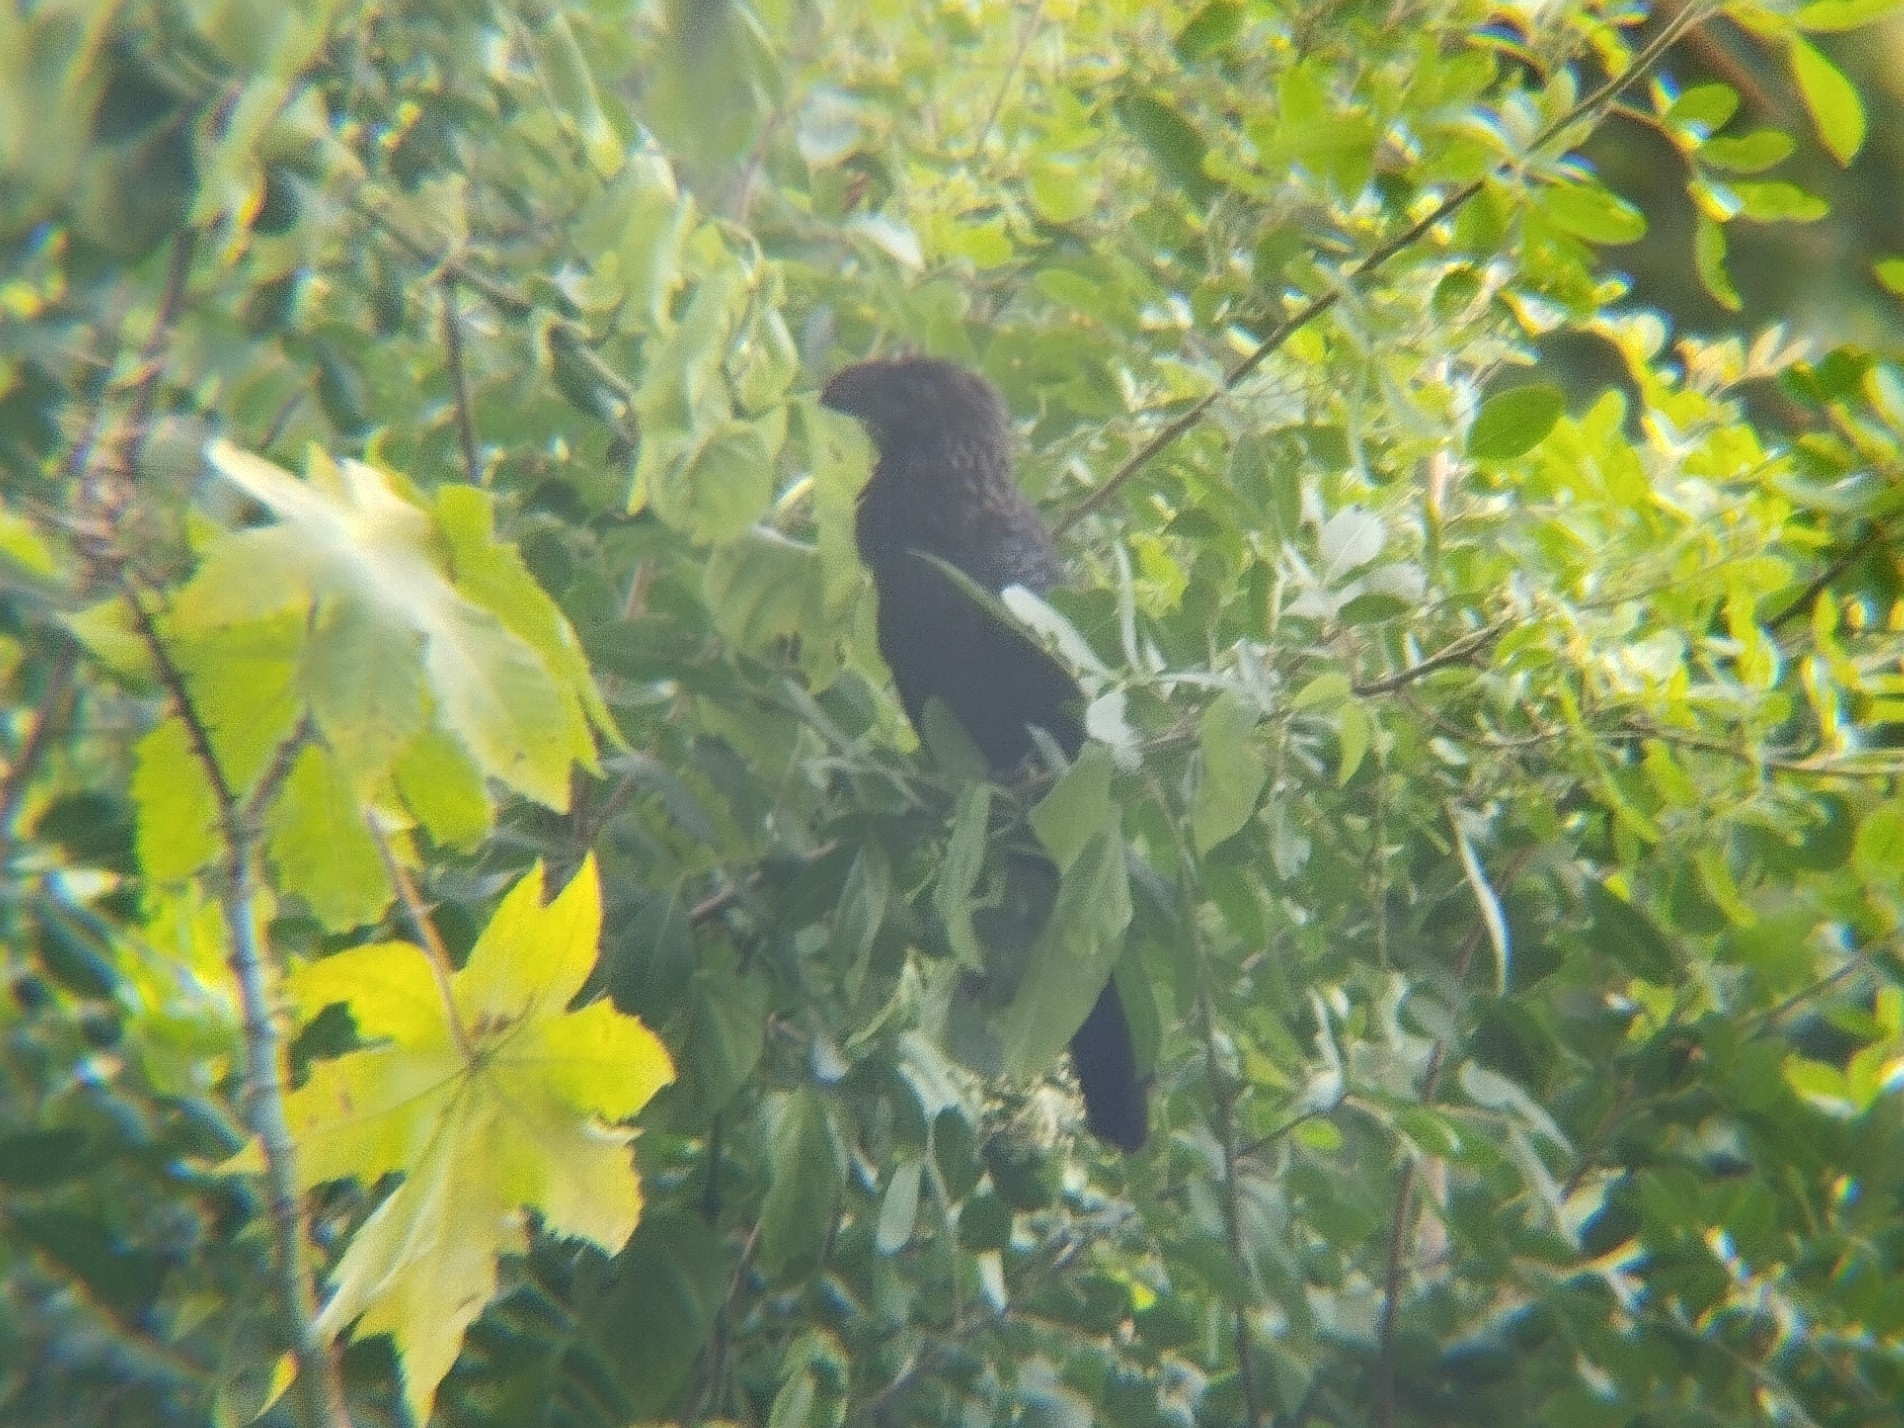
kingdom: Animalia
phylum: Chordata
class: Aves
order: Cuculiformes
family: Cuculidae
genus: Crotophaga
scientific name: Crotophaga ani
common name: Smooth-billed ani
